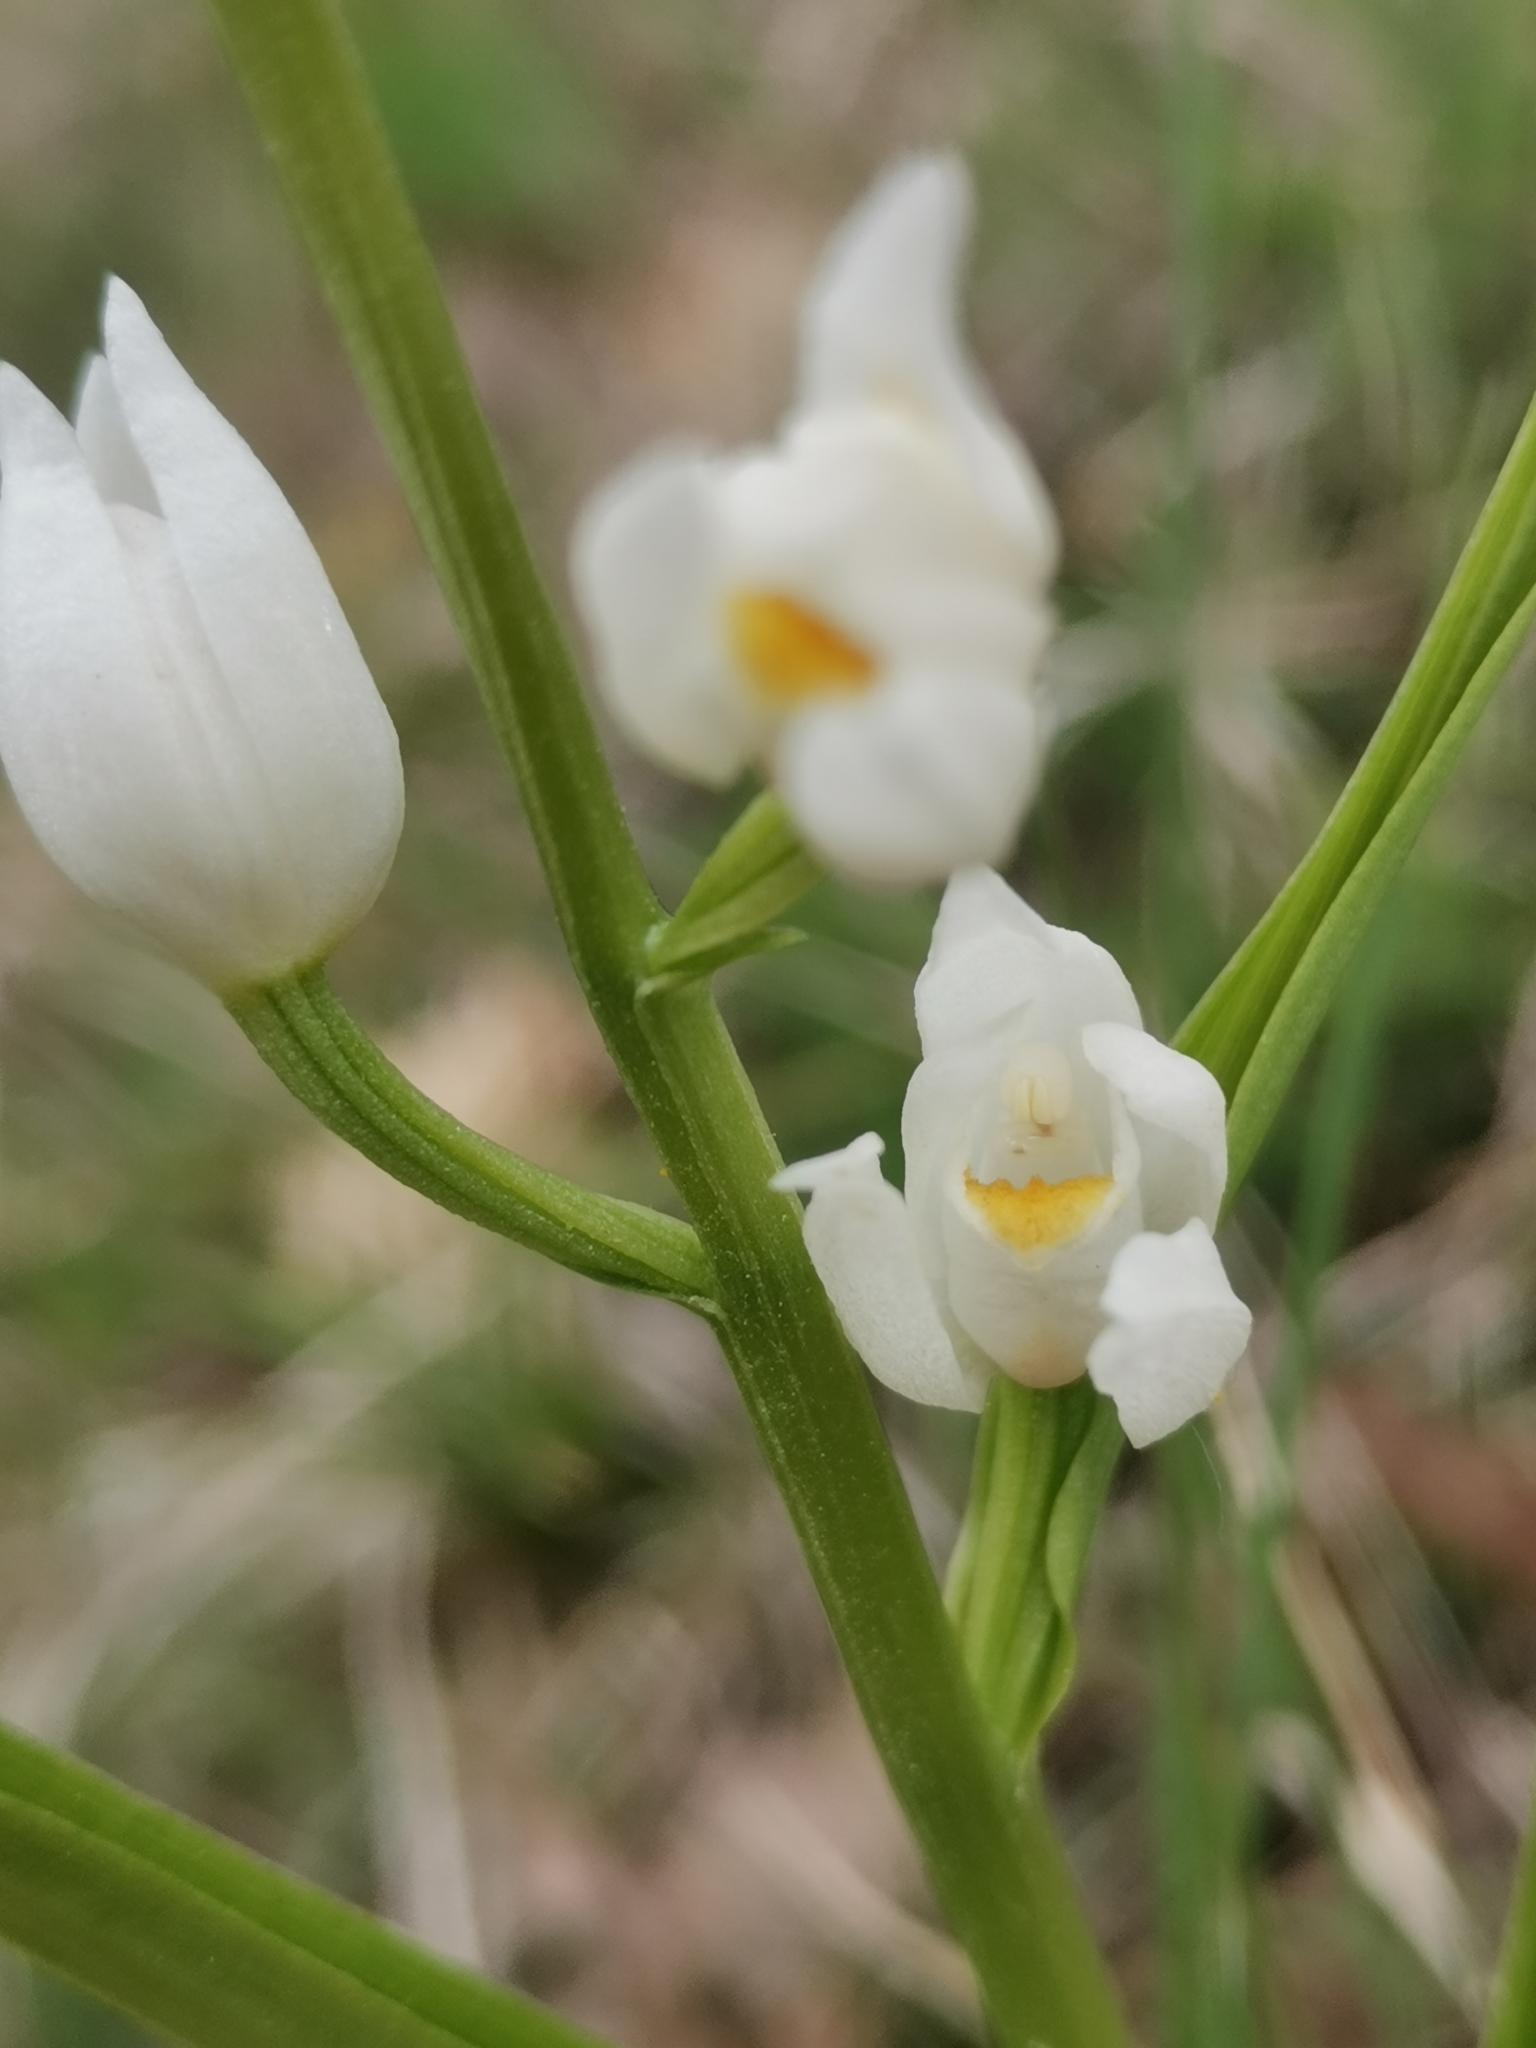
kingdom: Plantae
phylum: Tracheophyta
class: Liliopsida
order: Asparagales
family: Orchidaceae
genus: Cephalanthera
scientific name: Cephalanthera longifolia
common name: Narrow-leaved helleborine
